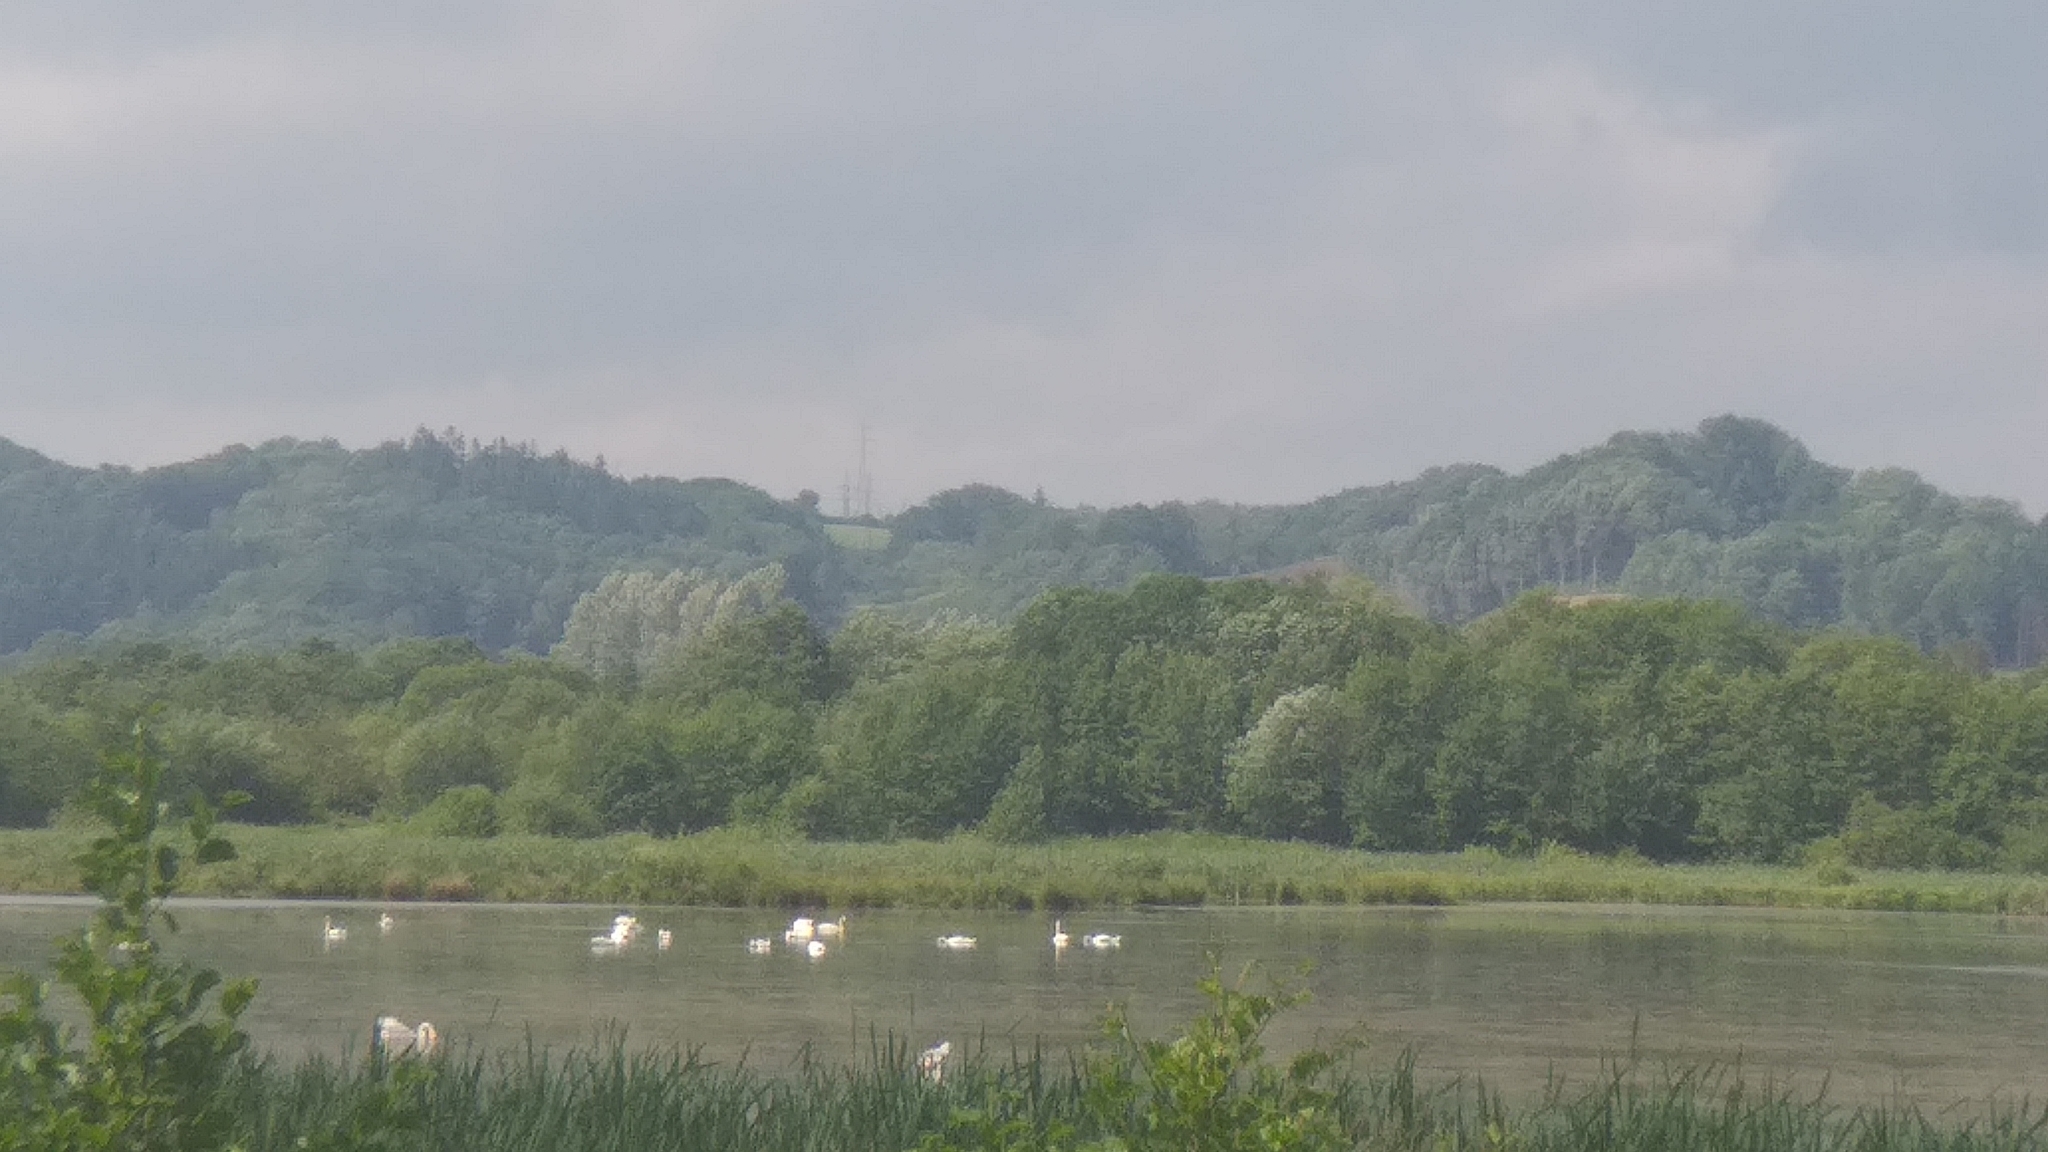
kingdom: Animalia
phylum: Chordata
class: Aves
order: Anseriformes
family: Anatidae
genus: Cygnus
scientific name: Cygnus olor
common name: Mute swan
